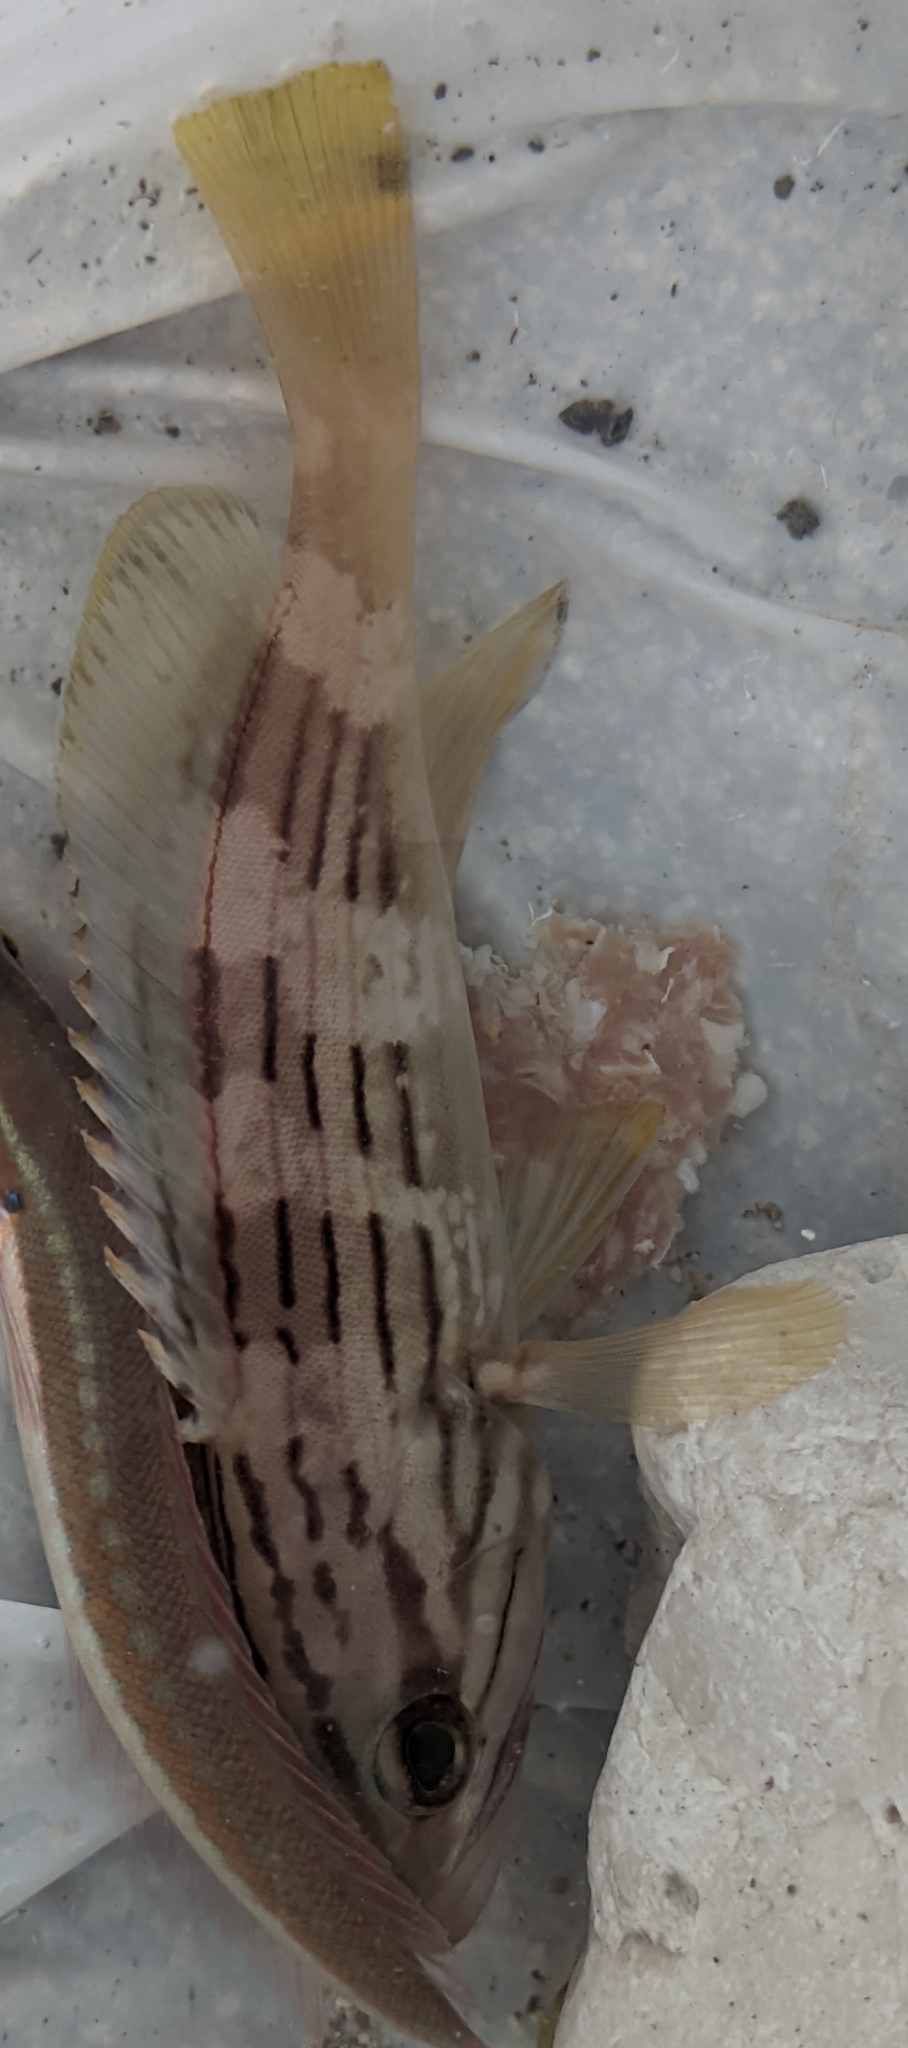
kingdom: Animalia
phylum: Chordata
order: Perciformes
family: Serranidae
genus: Epinephelus
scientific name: Epinephelus costae
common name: Goldblotch grouper
